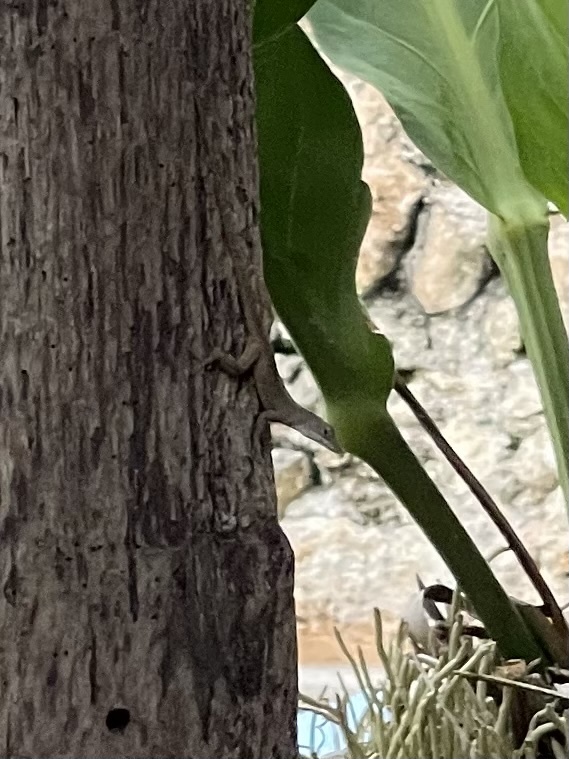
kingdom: Animalia
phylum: Chordata
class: Squamata
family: Dactyloidae
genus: Anolis
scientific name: Anolis sagrei
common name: Brown anole
